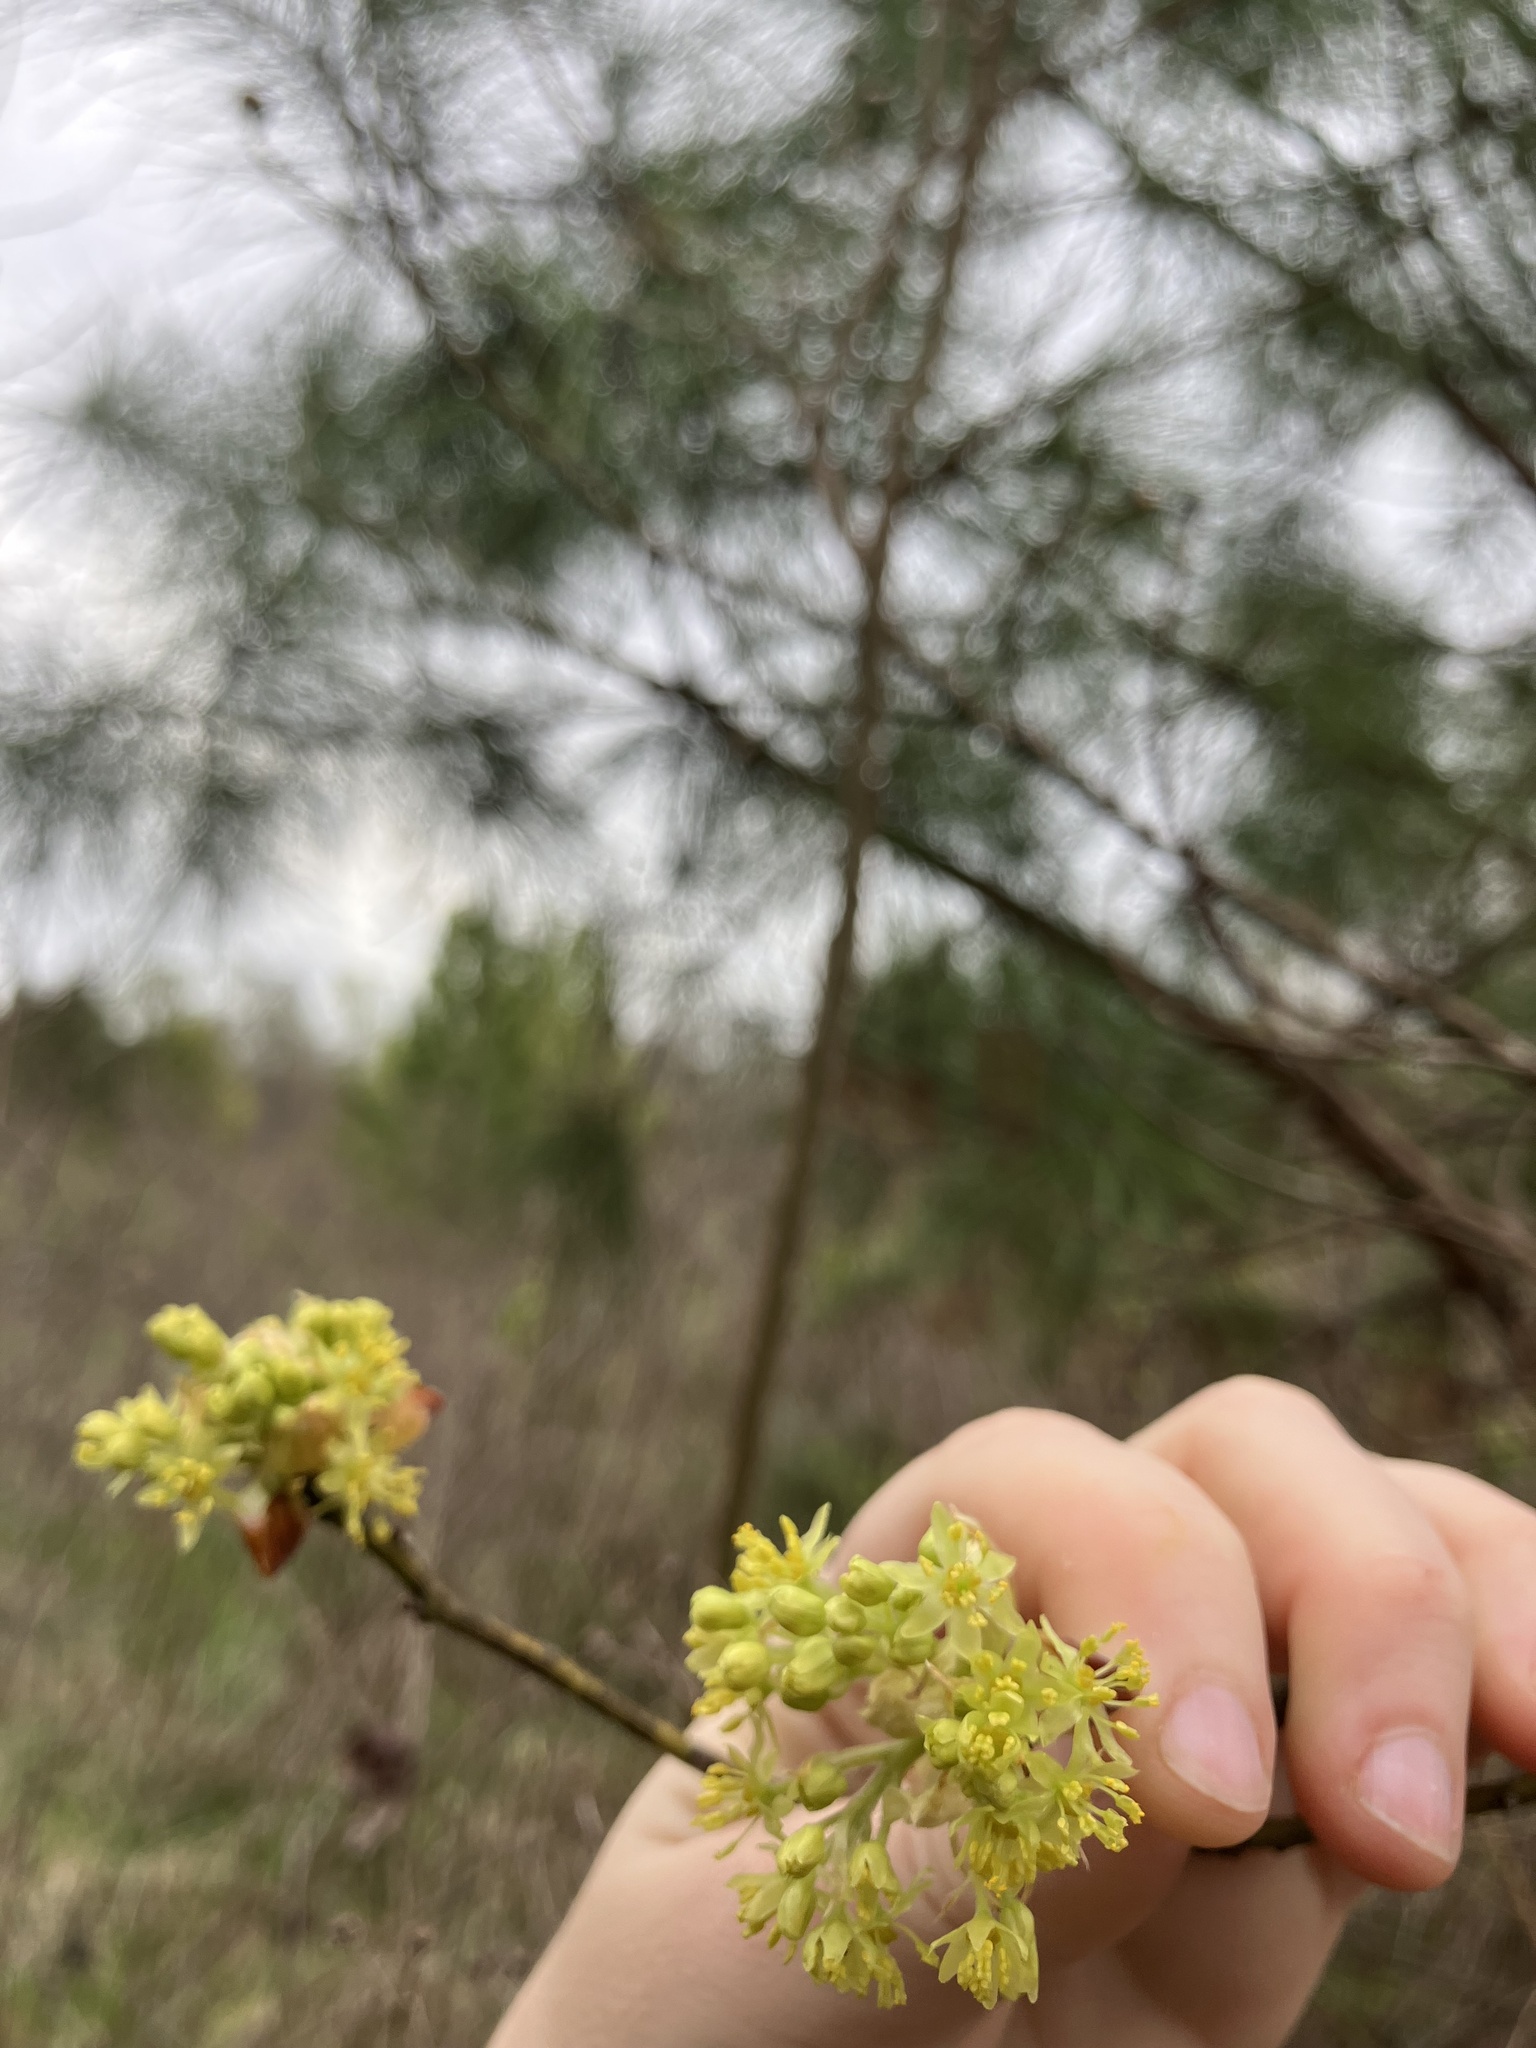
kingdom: Plantae
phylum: Tracheophyta
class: Magnoliopsida
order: Laurales
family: Lauraceae
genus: Sassafras
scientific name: Sassafras albidum
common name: Sassafras
